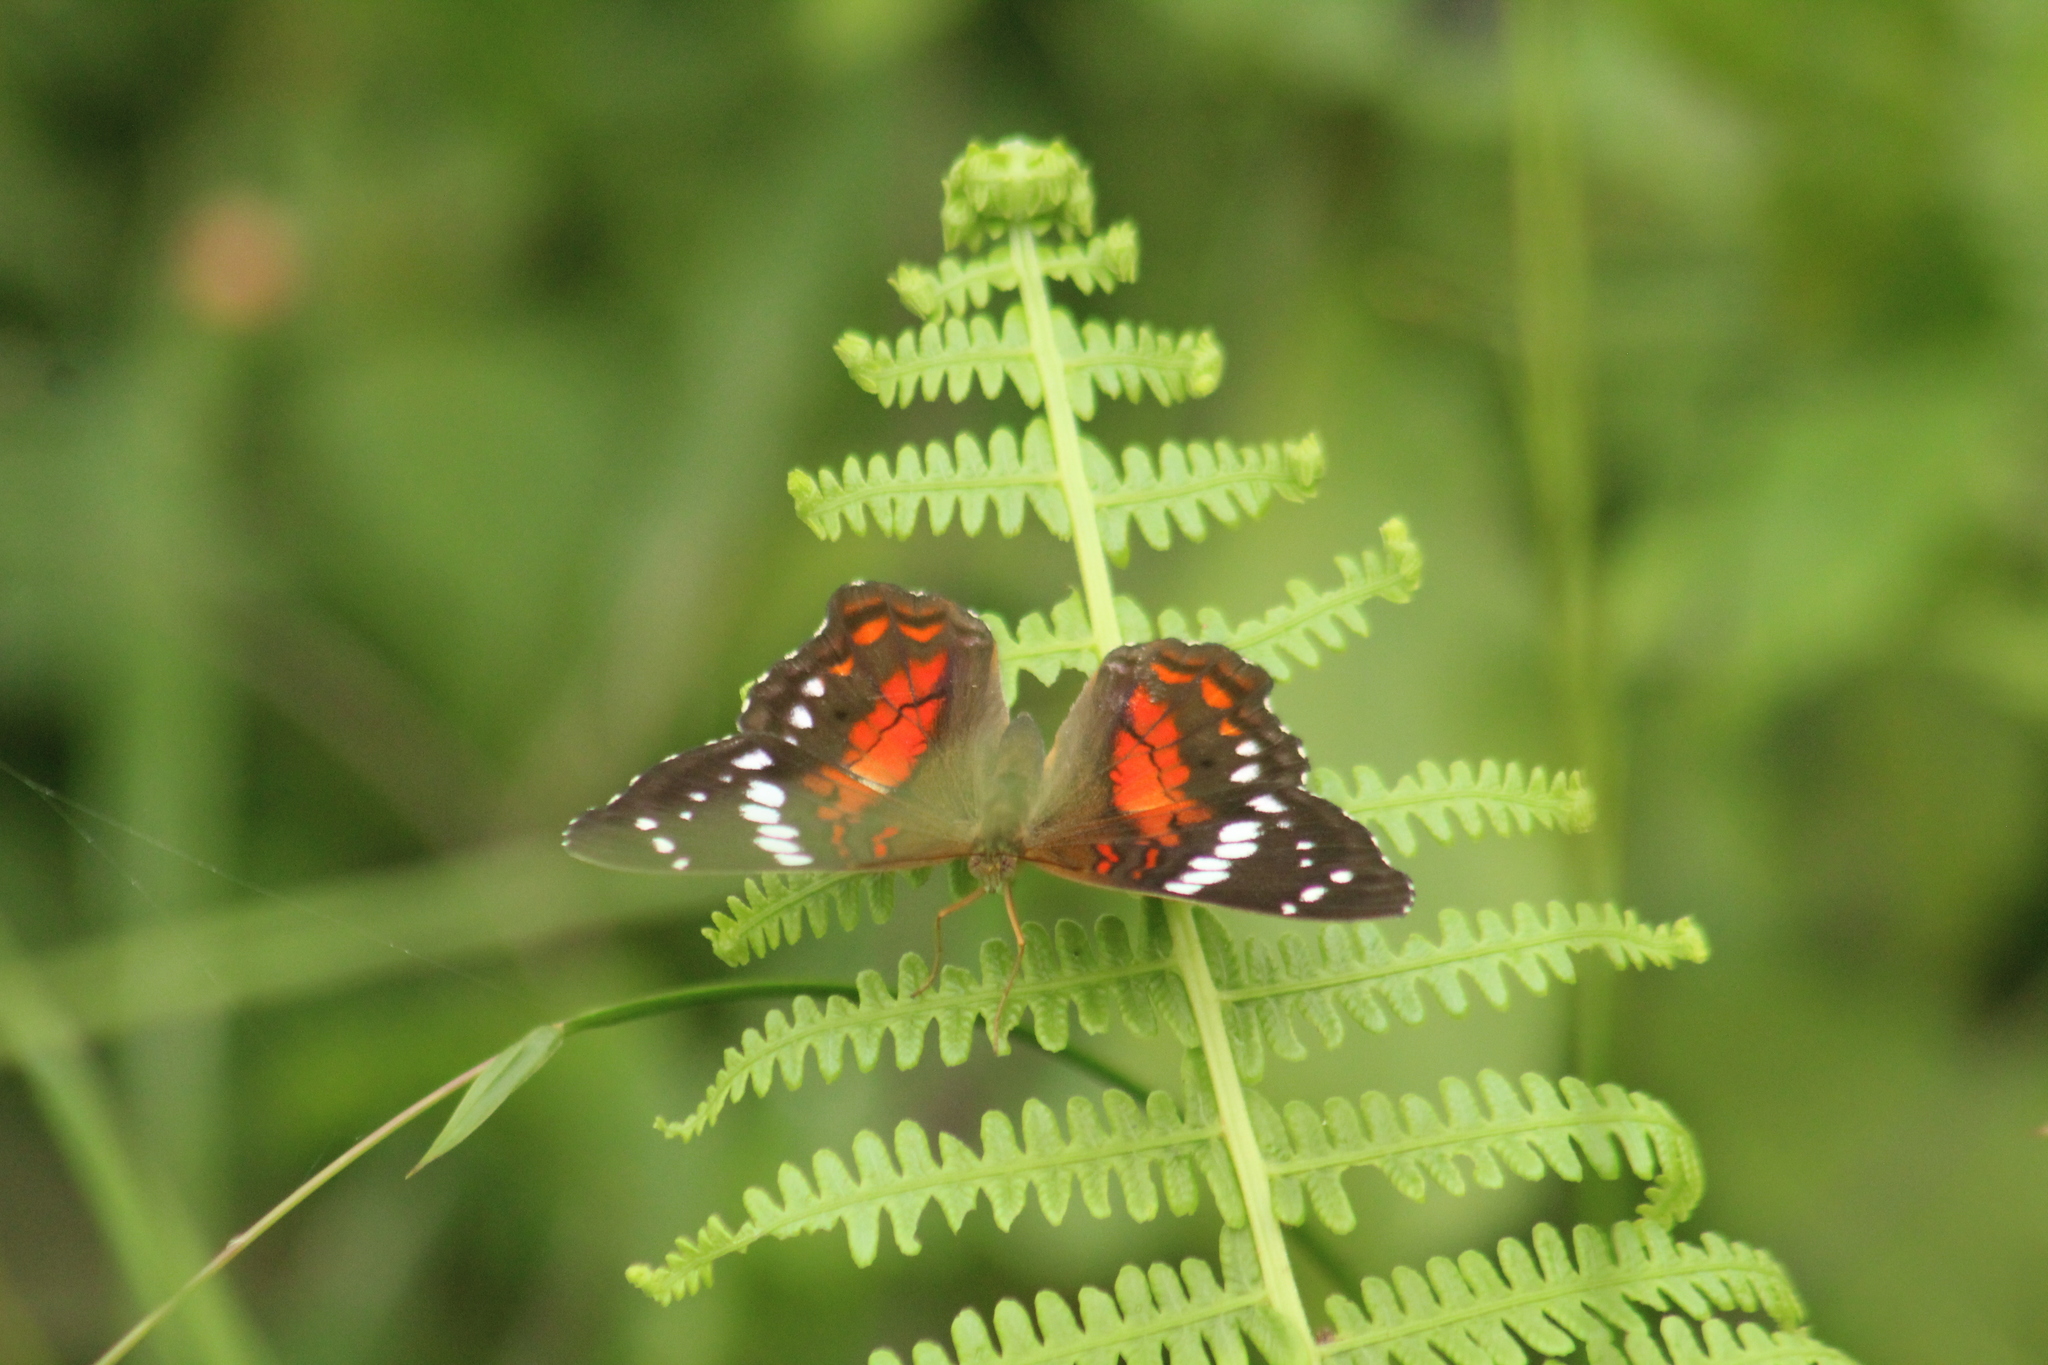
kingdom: Animalia
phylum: Arthropoda
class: Insecta
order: Lepidoptera
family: Nymphalidae
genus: Anartia
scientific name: Anartia amathea
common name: Red peacock
